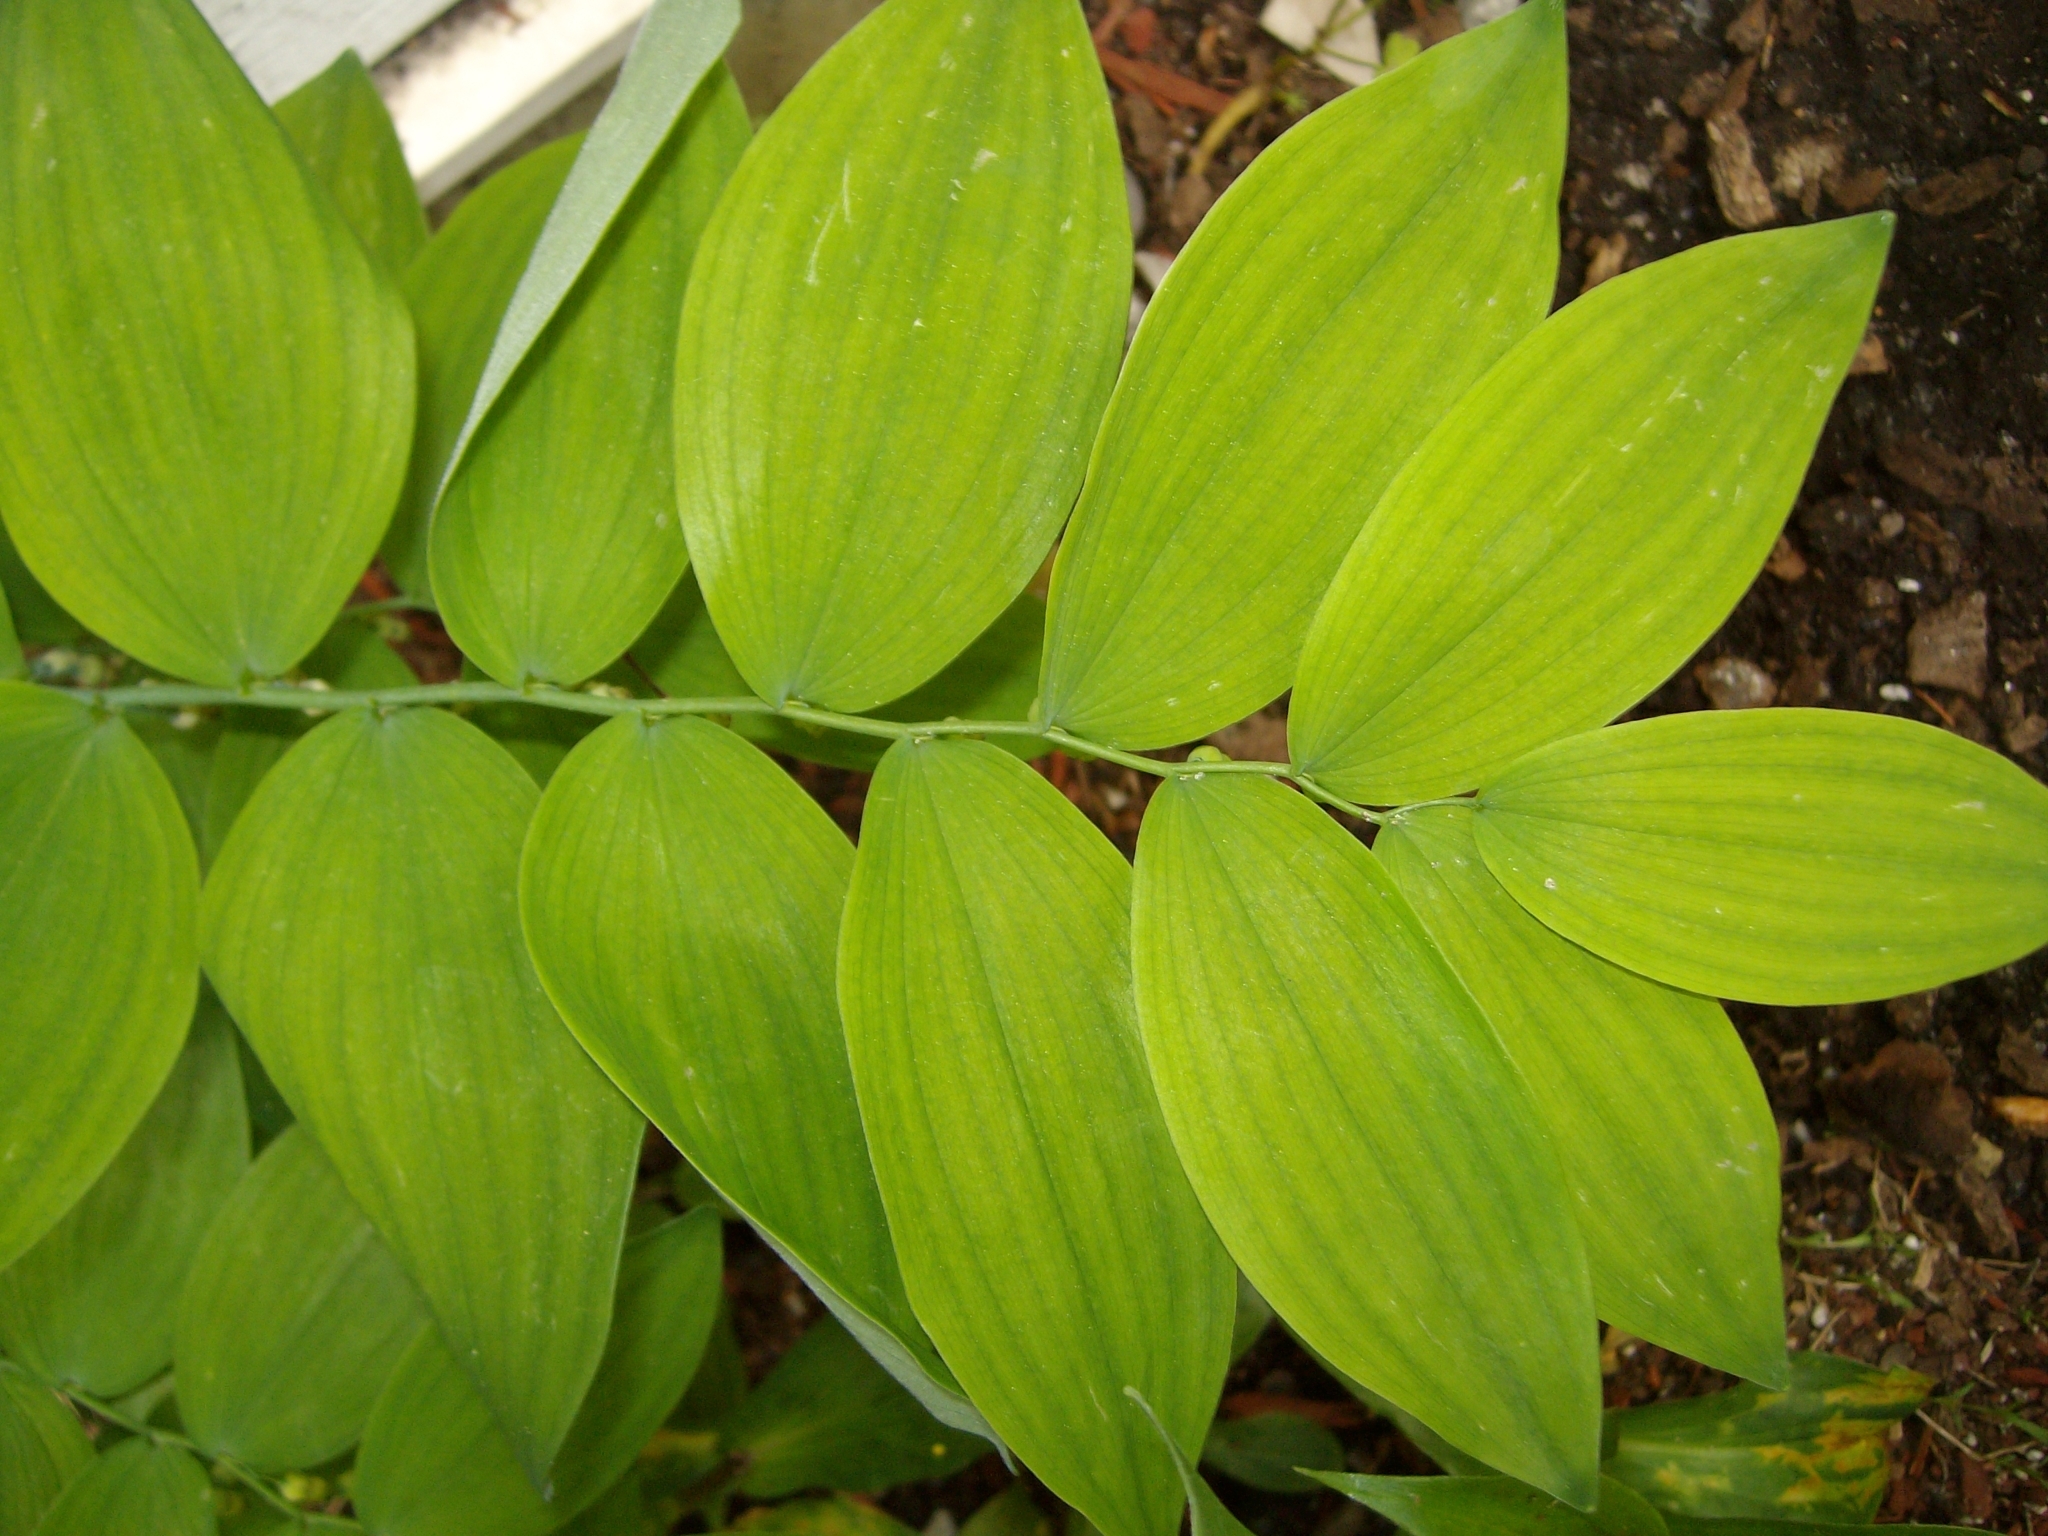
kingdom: Plantae
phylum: Tracheophyta
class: Liliopsida
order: Asparagales
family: Asparagaceae
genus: Polygonatum
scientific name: Polygonatum pubescens
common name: Downy solomon's seal
